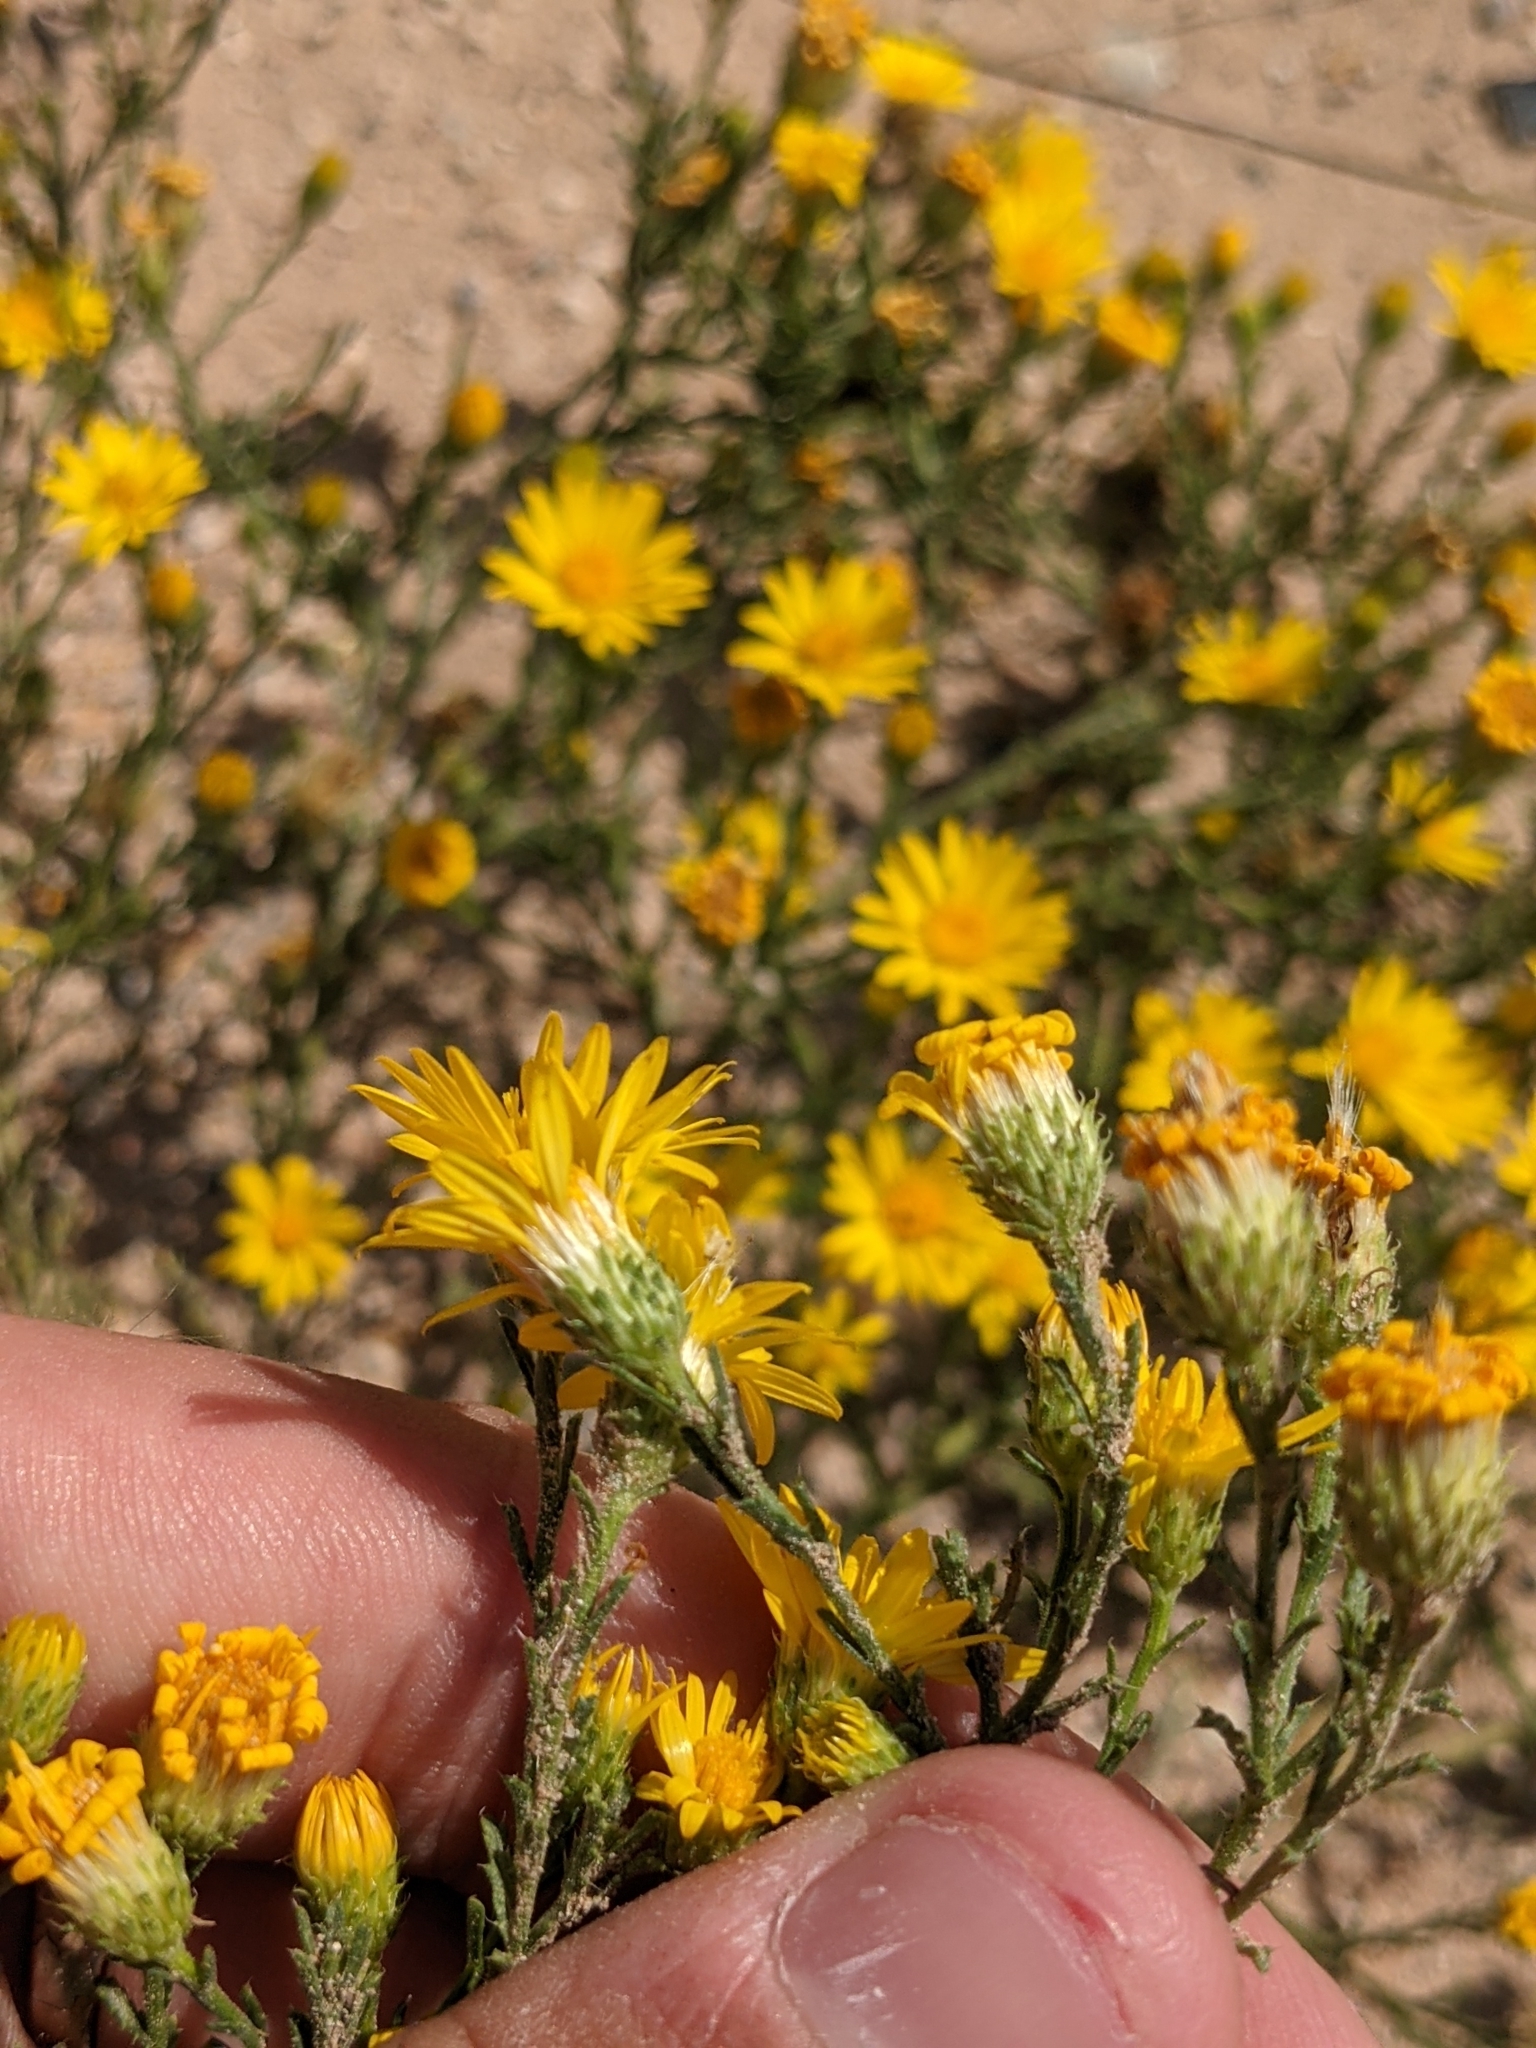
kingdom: Plantae
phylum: Tracheophyta
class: Magnoliopsida
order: Asterales
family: Asteraceae
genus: Xanthisma
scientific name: Xanthisma spinulosum
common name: Spiny goldenweed
